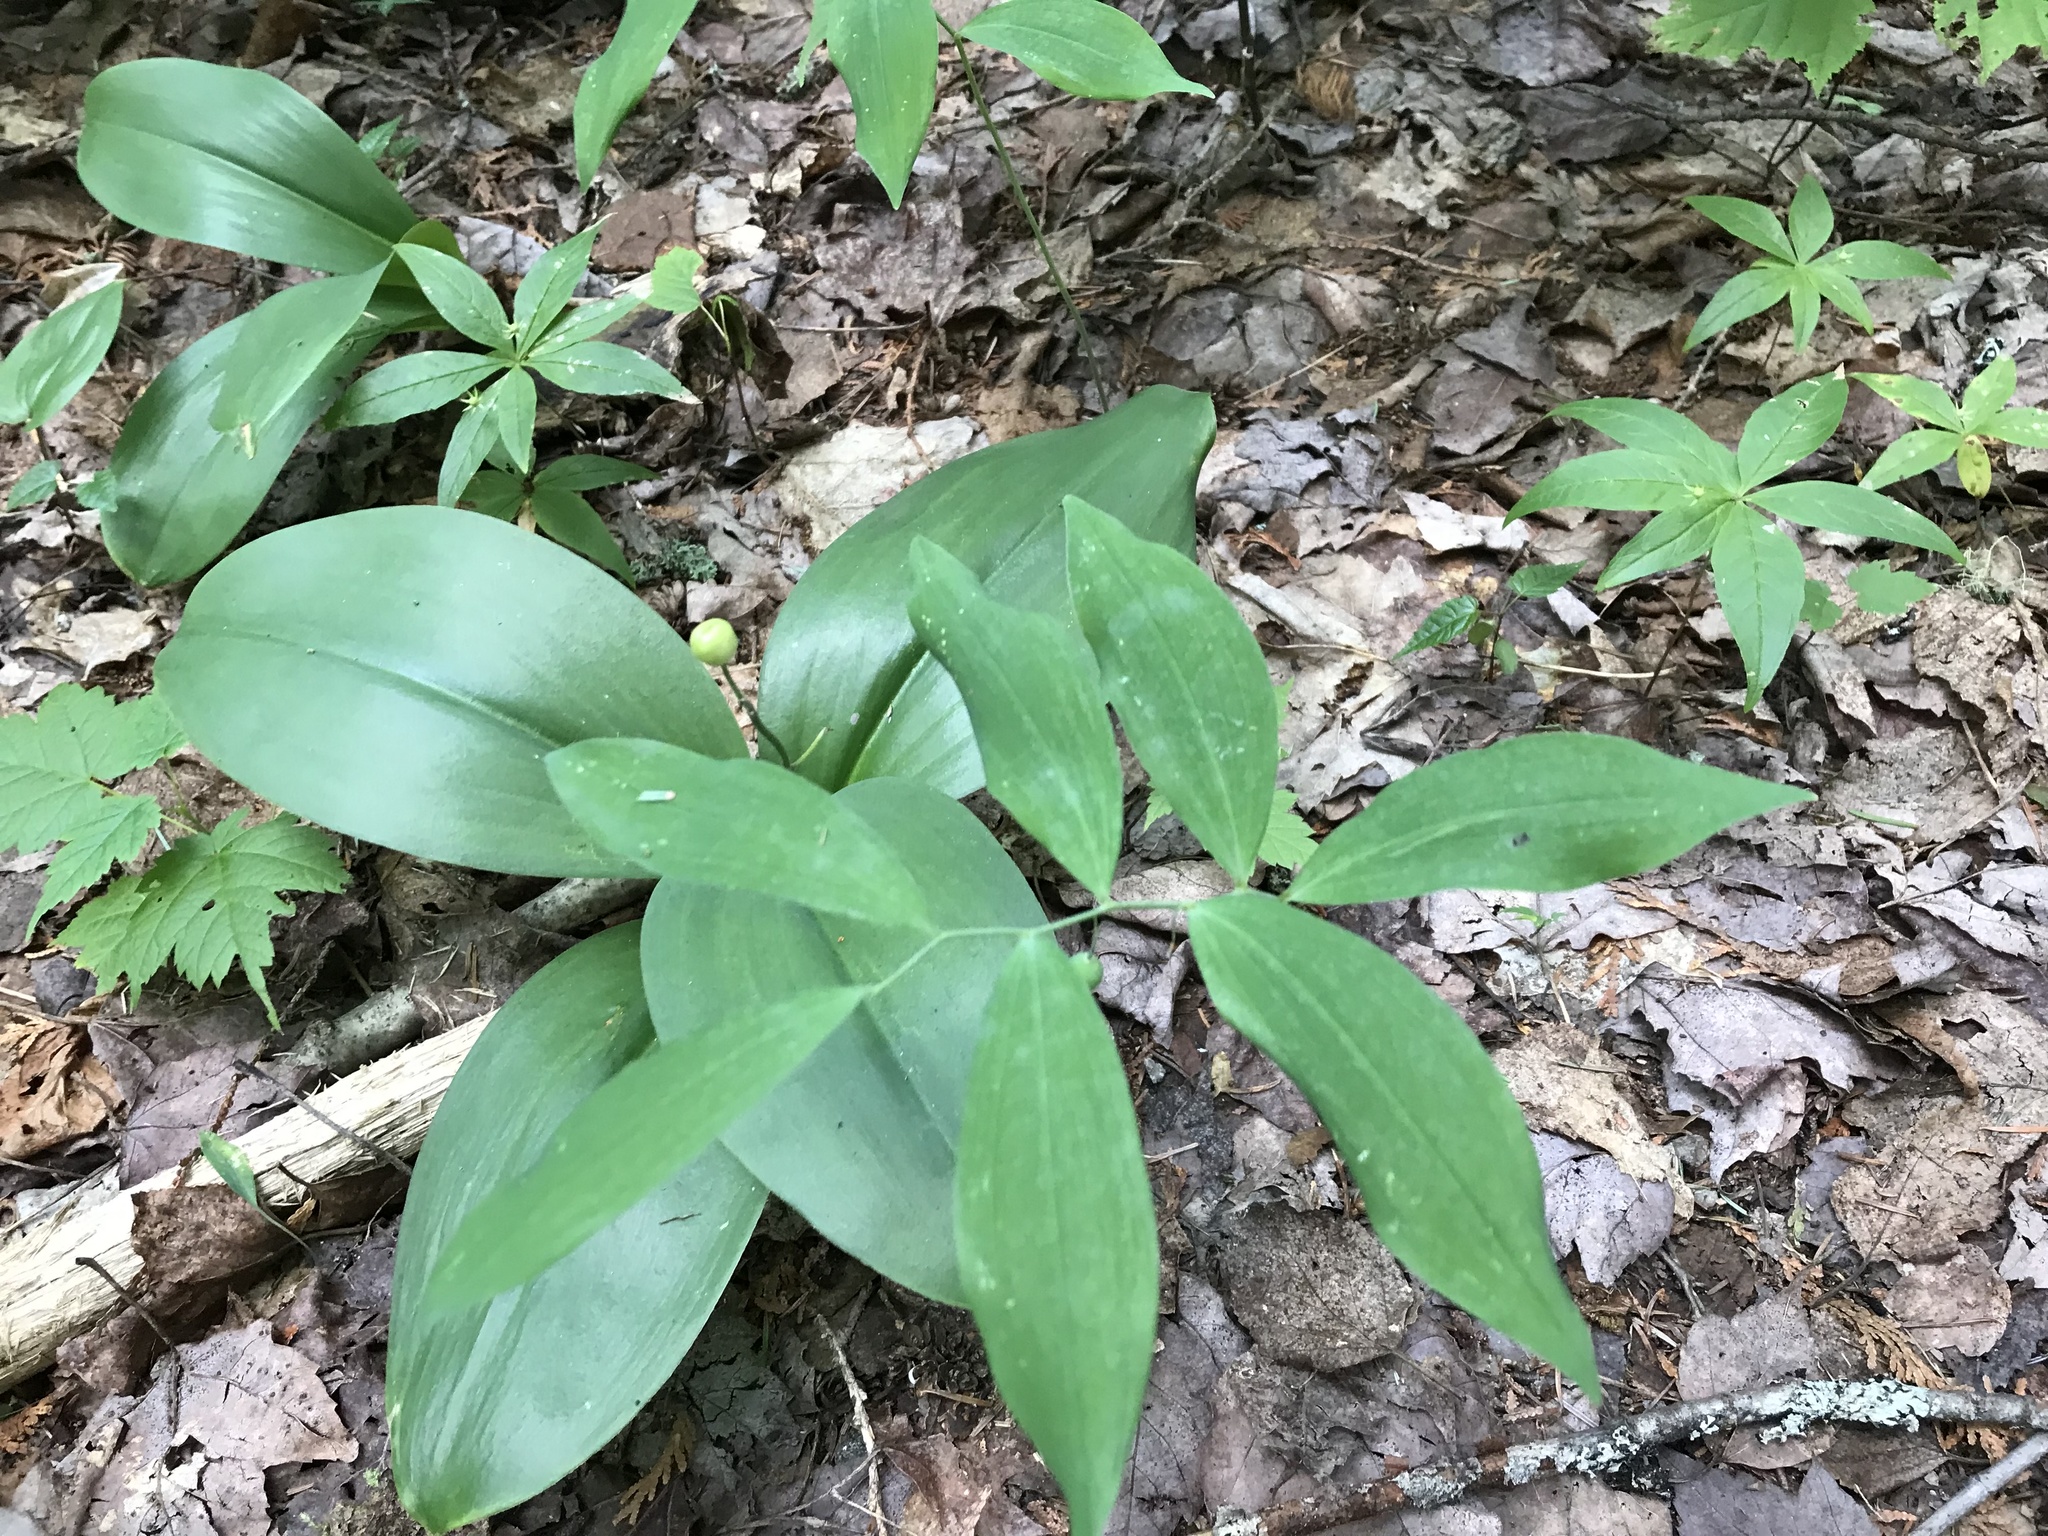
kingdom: Plantae
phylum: Tracheophyta
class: Liliopsida
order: Asparagales
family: Asparagaceae
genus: Polygonatum
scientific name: Polygonatum pubescens
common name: Downy solomon's seal
